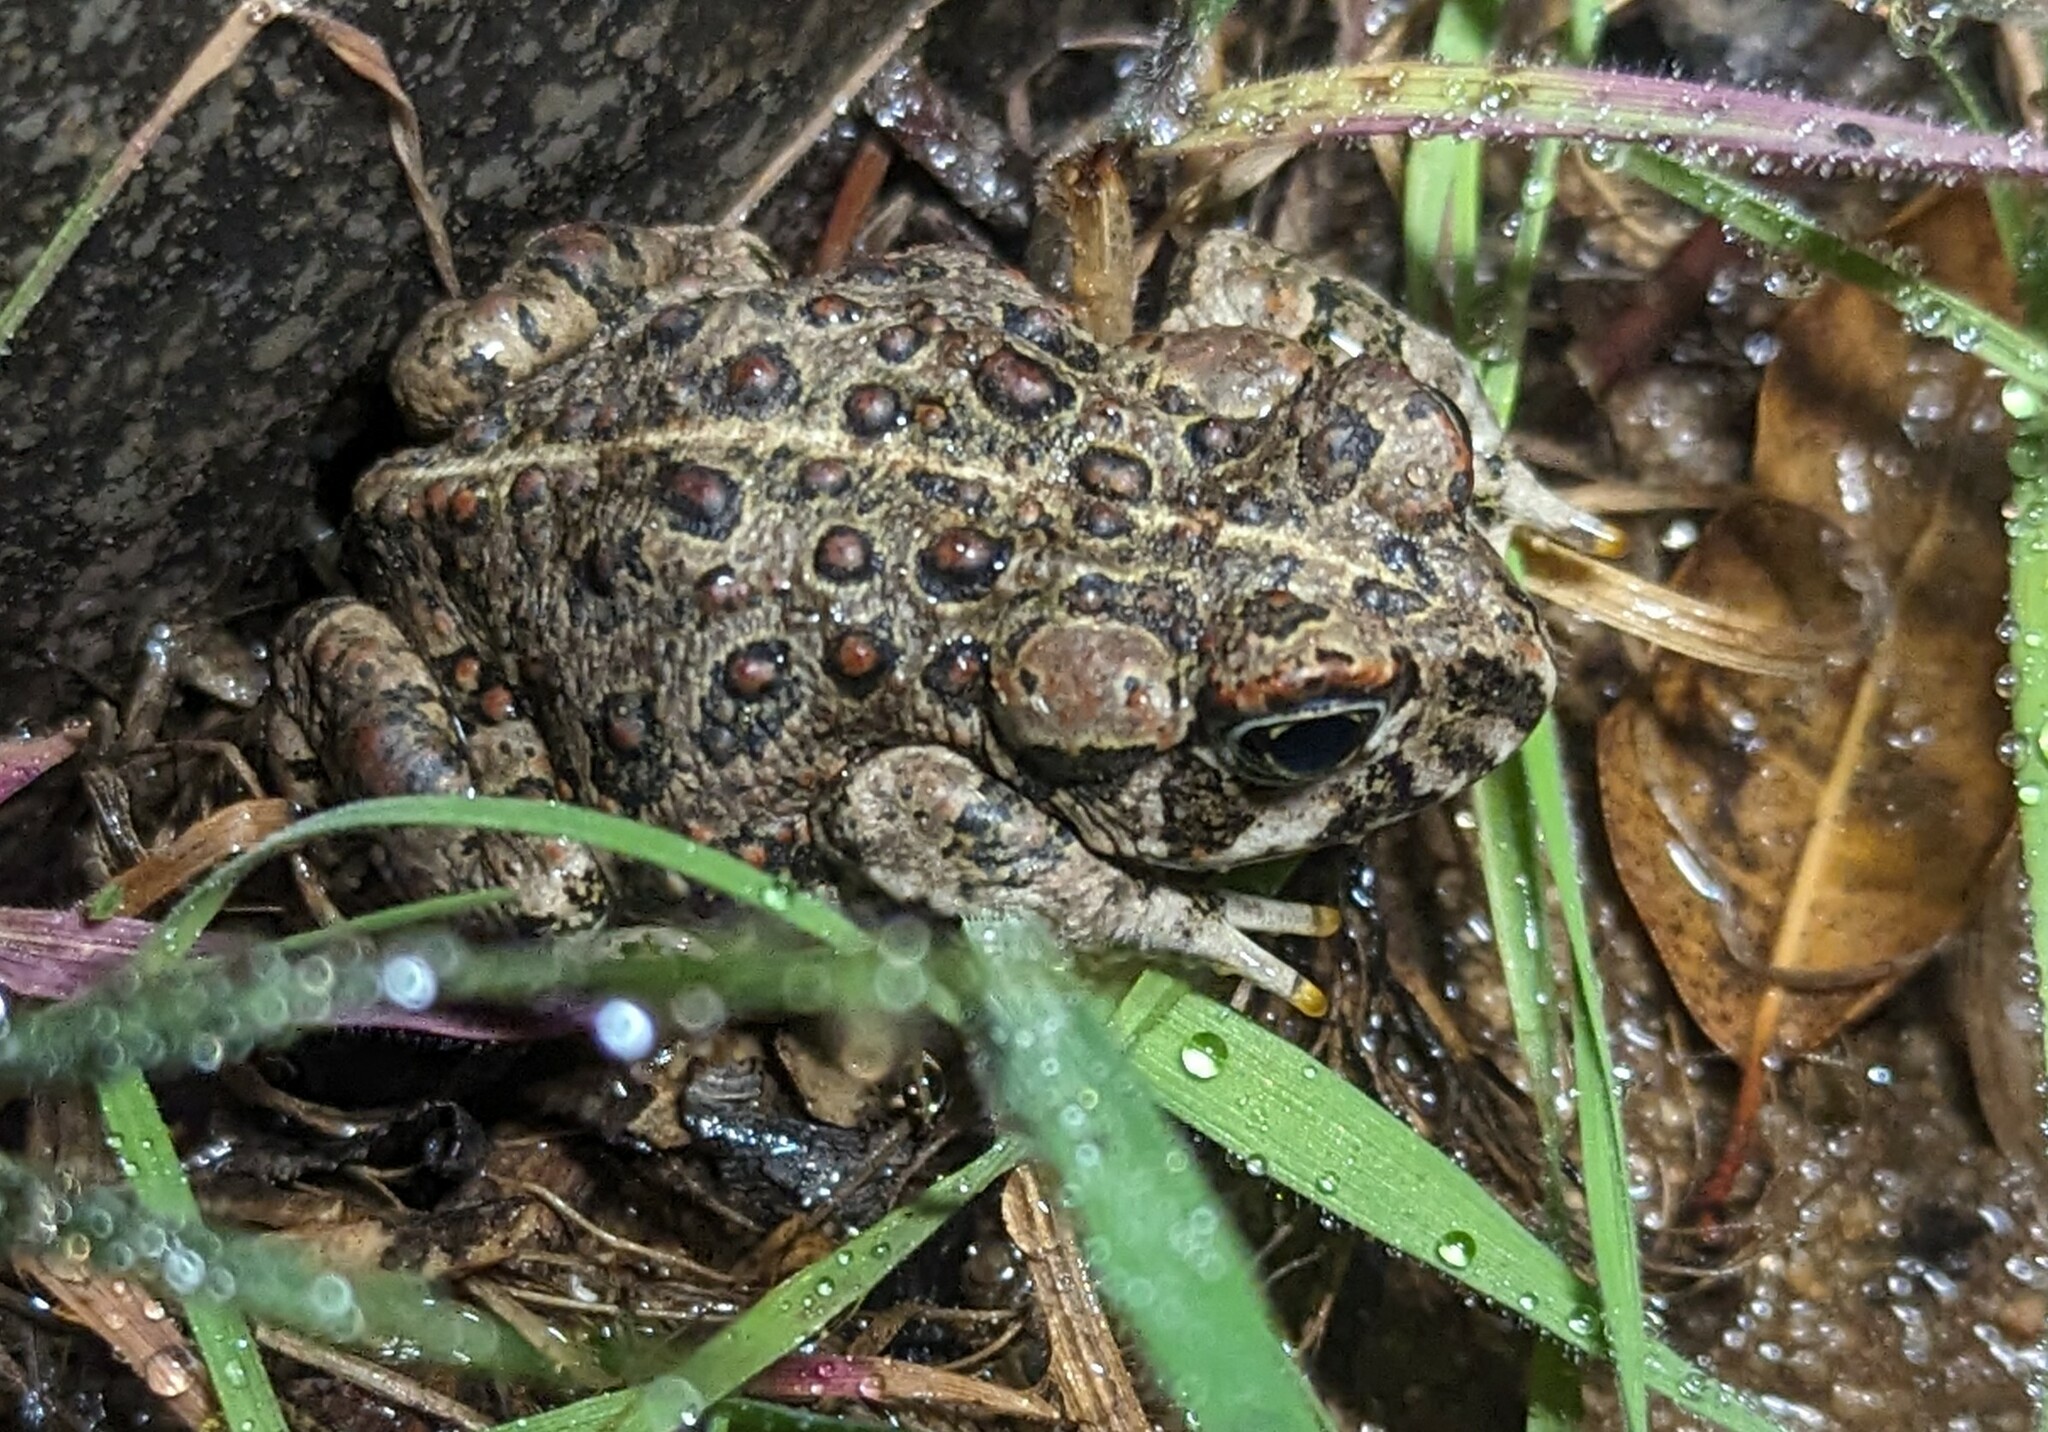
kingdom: Animalia
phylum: Chordata
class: Amphibia
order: Anura
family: Bufonidae
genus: Anaxyrus
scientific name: Anaxyrus boreas
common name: Western toad
